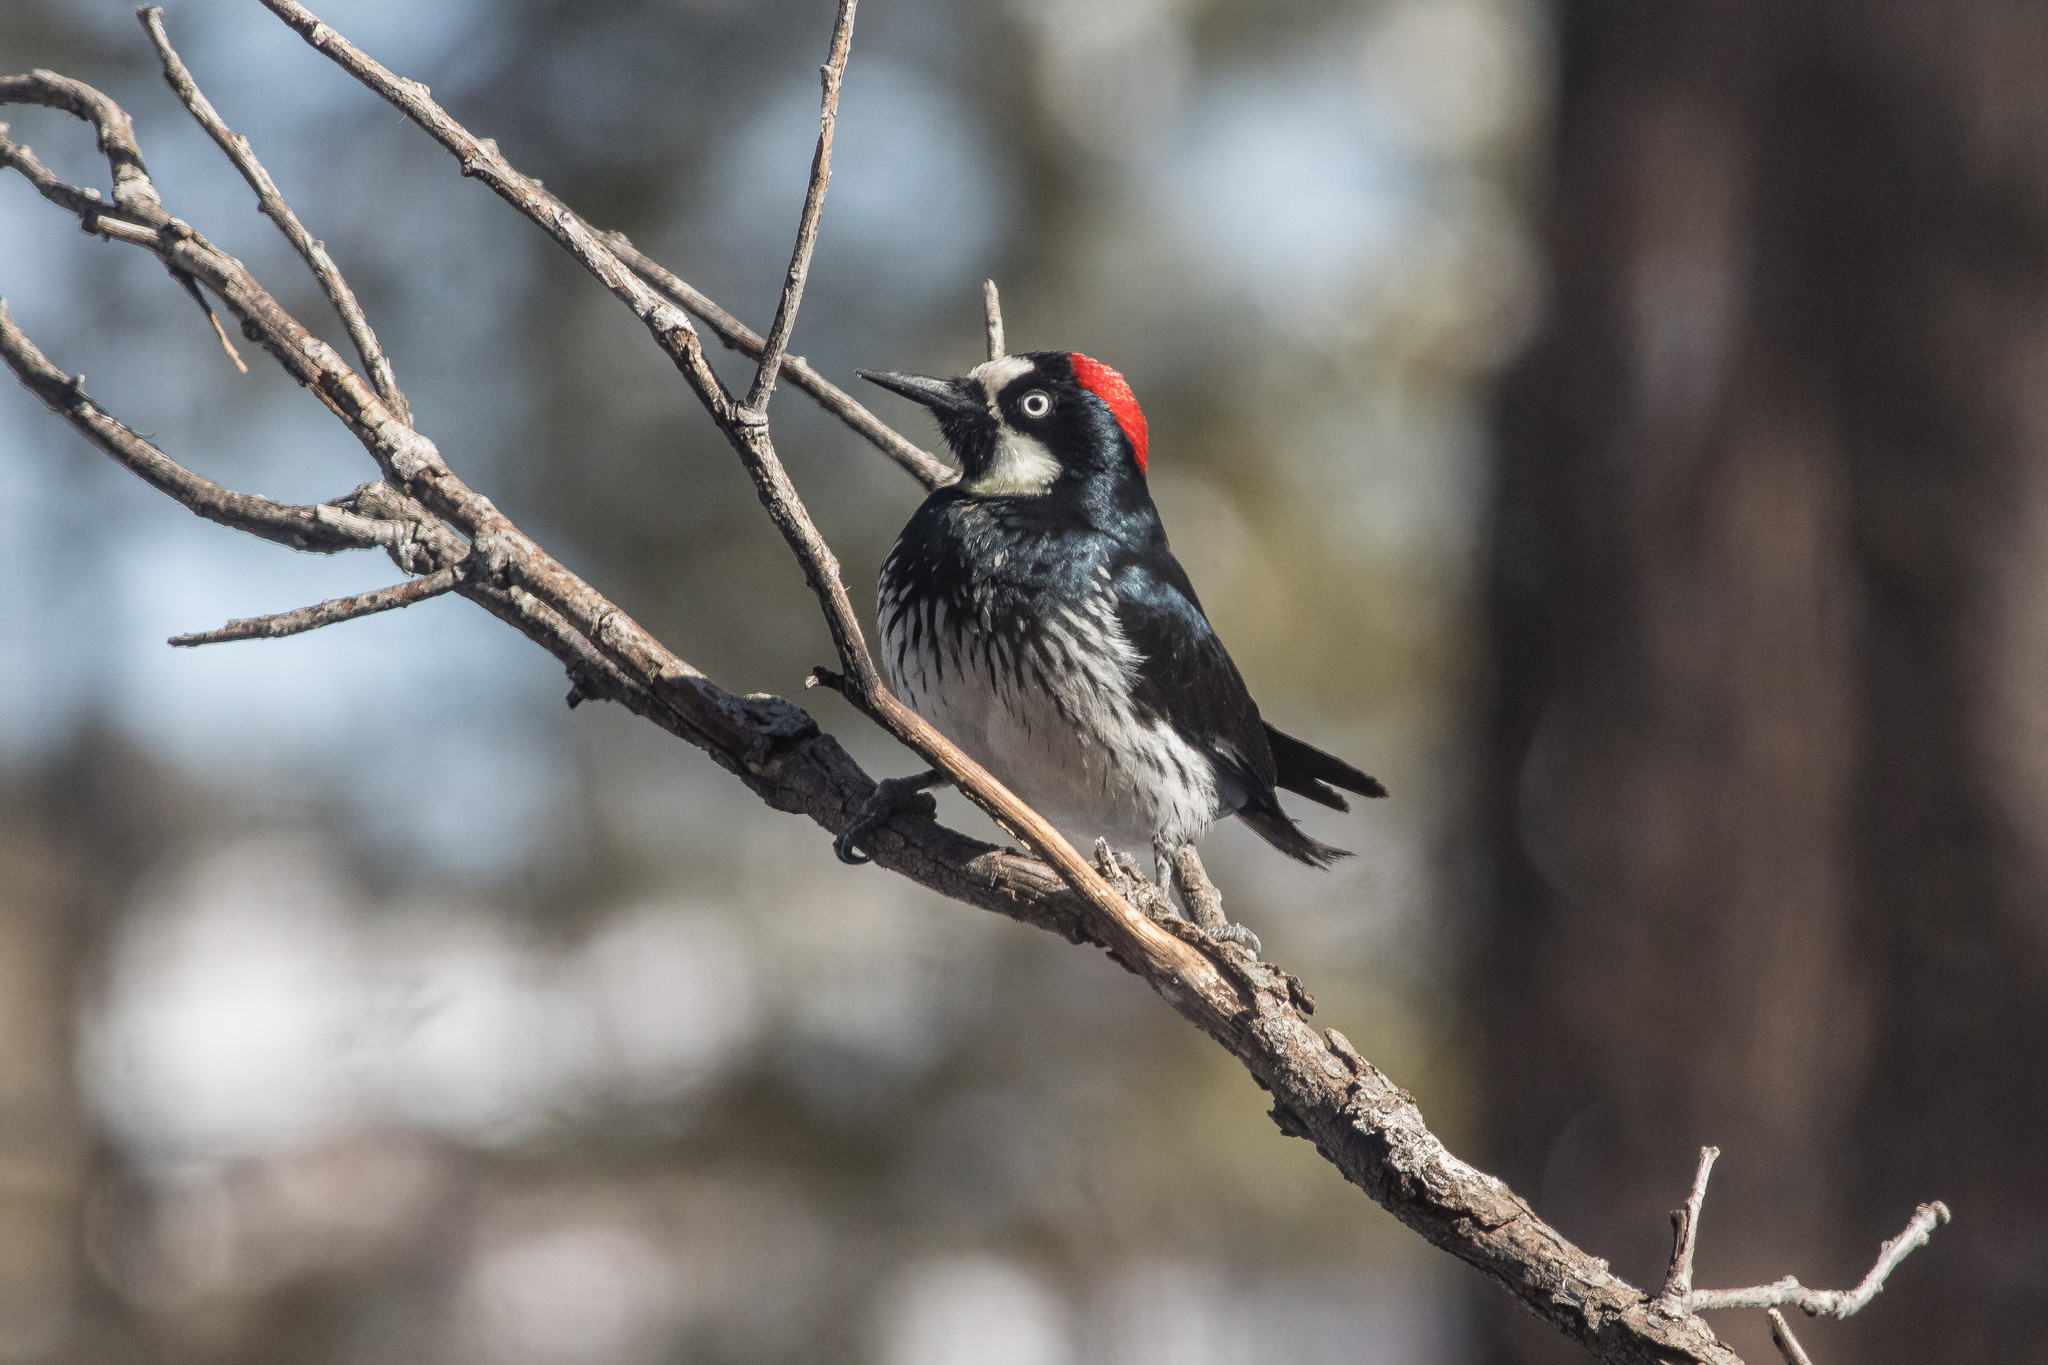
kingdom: Animalia
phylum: Chordata
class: Aves
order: Piciformes
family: Picidae
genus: Melanerpes
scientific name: Melanerpes formicivorus
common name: Acorn woodpecker
